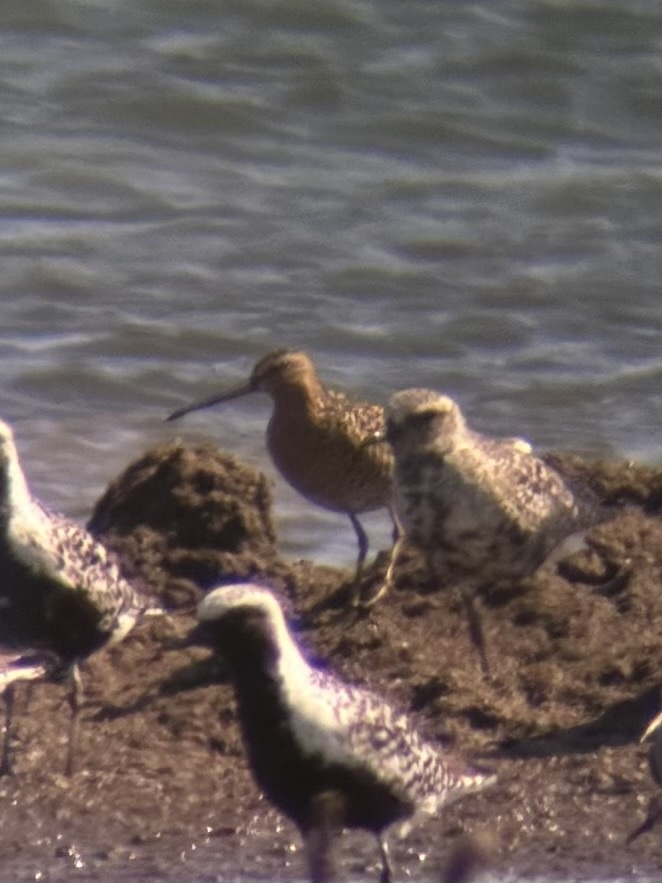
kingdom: Animalia
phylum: Chordata
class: Aves
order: Charadriiformes
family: Scolopacidae
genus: Limnodromus
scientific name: Limnodromus griseus
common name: Short-billed dowitcher
